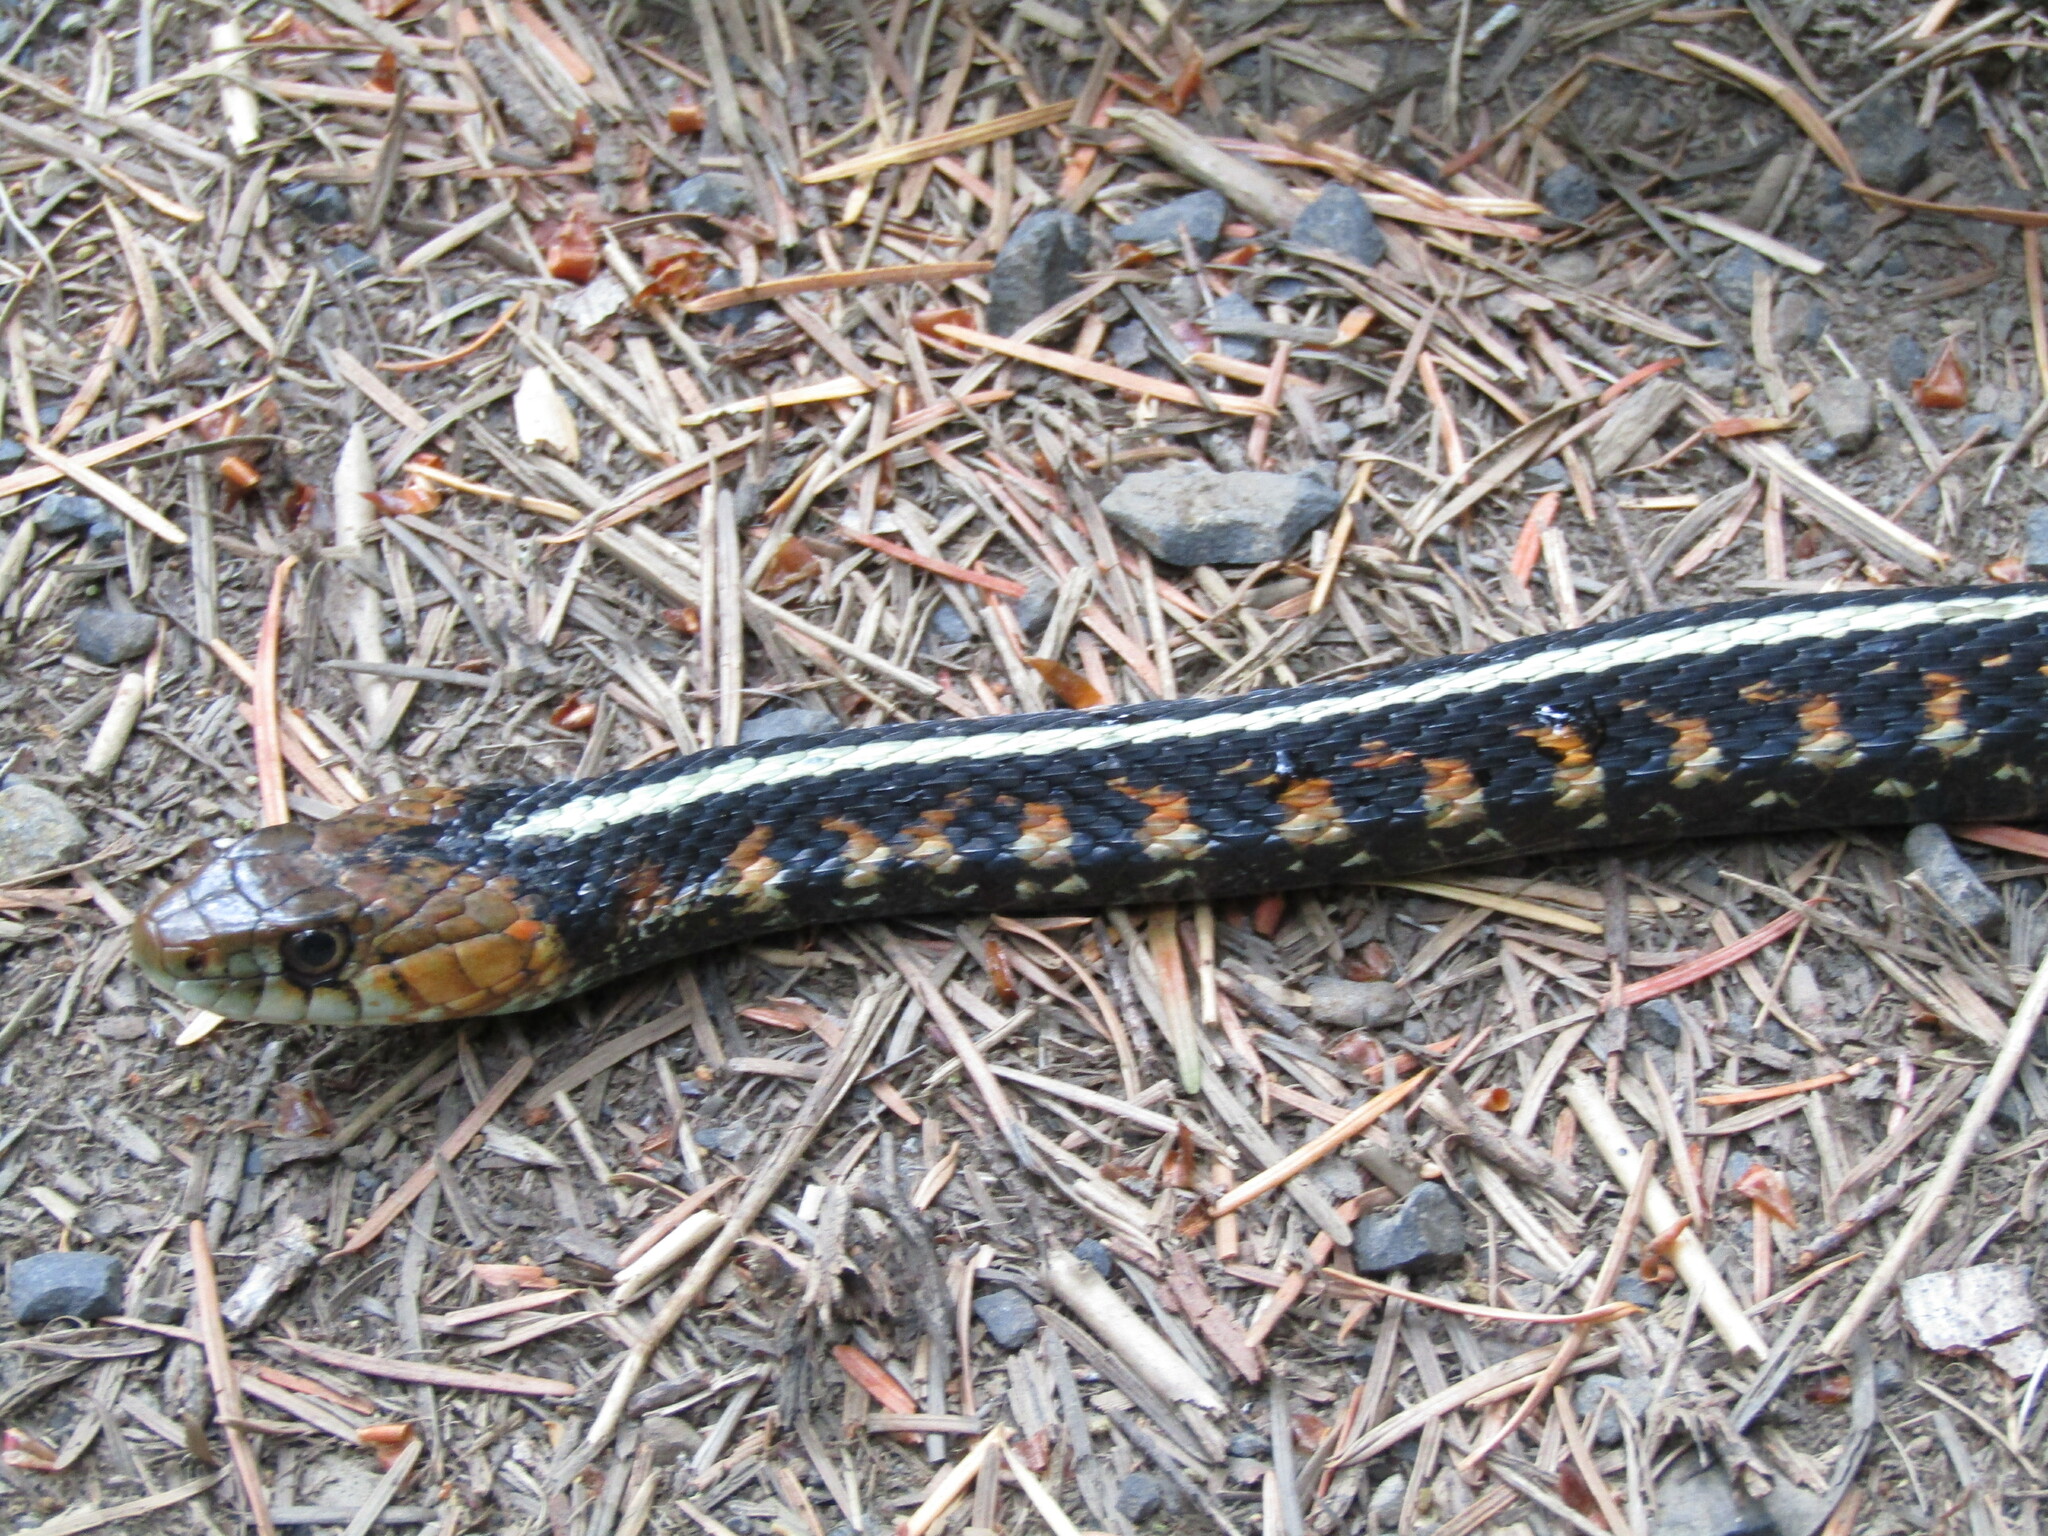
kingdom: Animalia
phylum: Chordata
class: Squamata
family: Colubridae
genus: Thamnophis
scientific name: Thamnophis sirtalis
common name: Common garter snake
